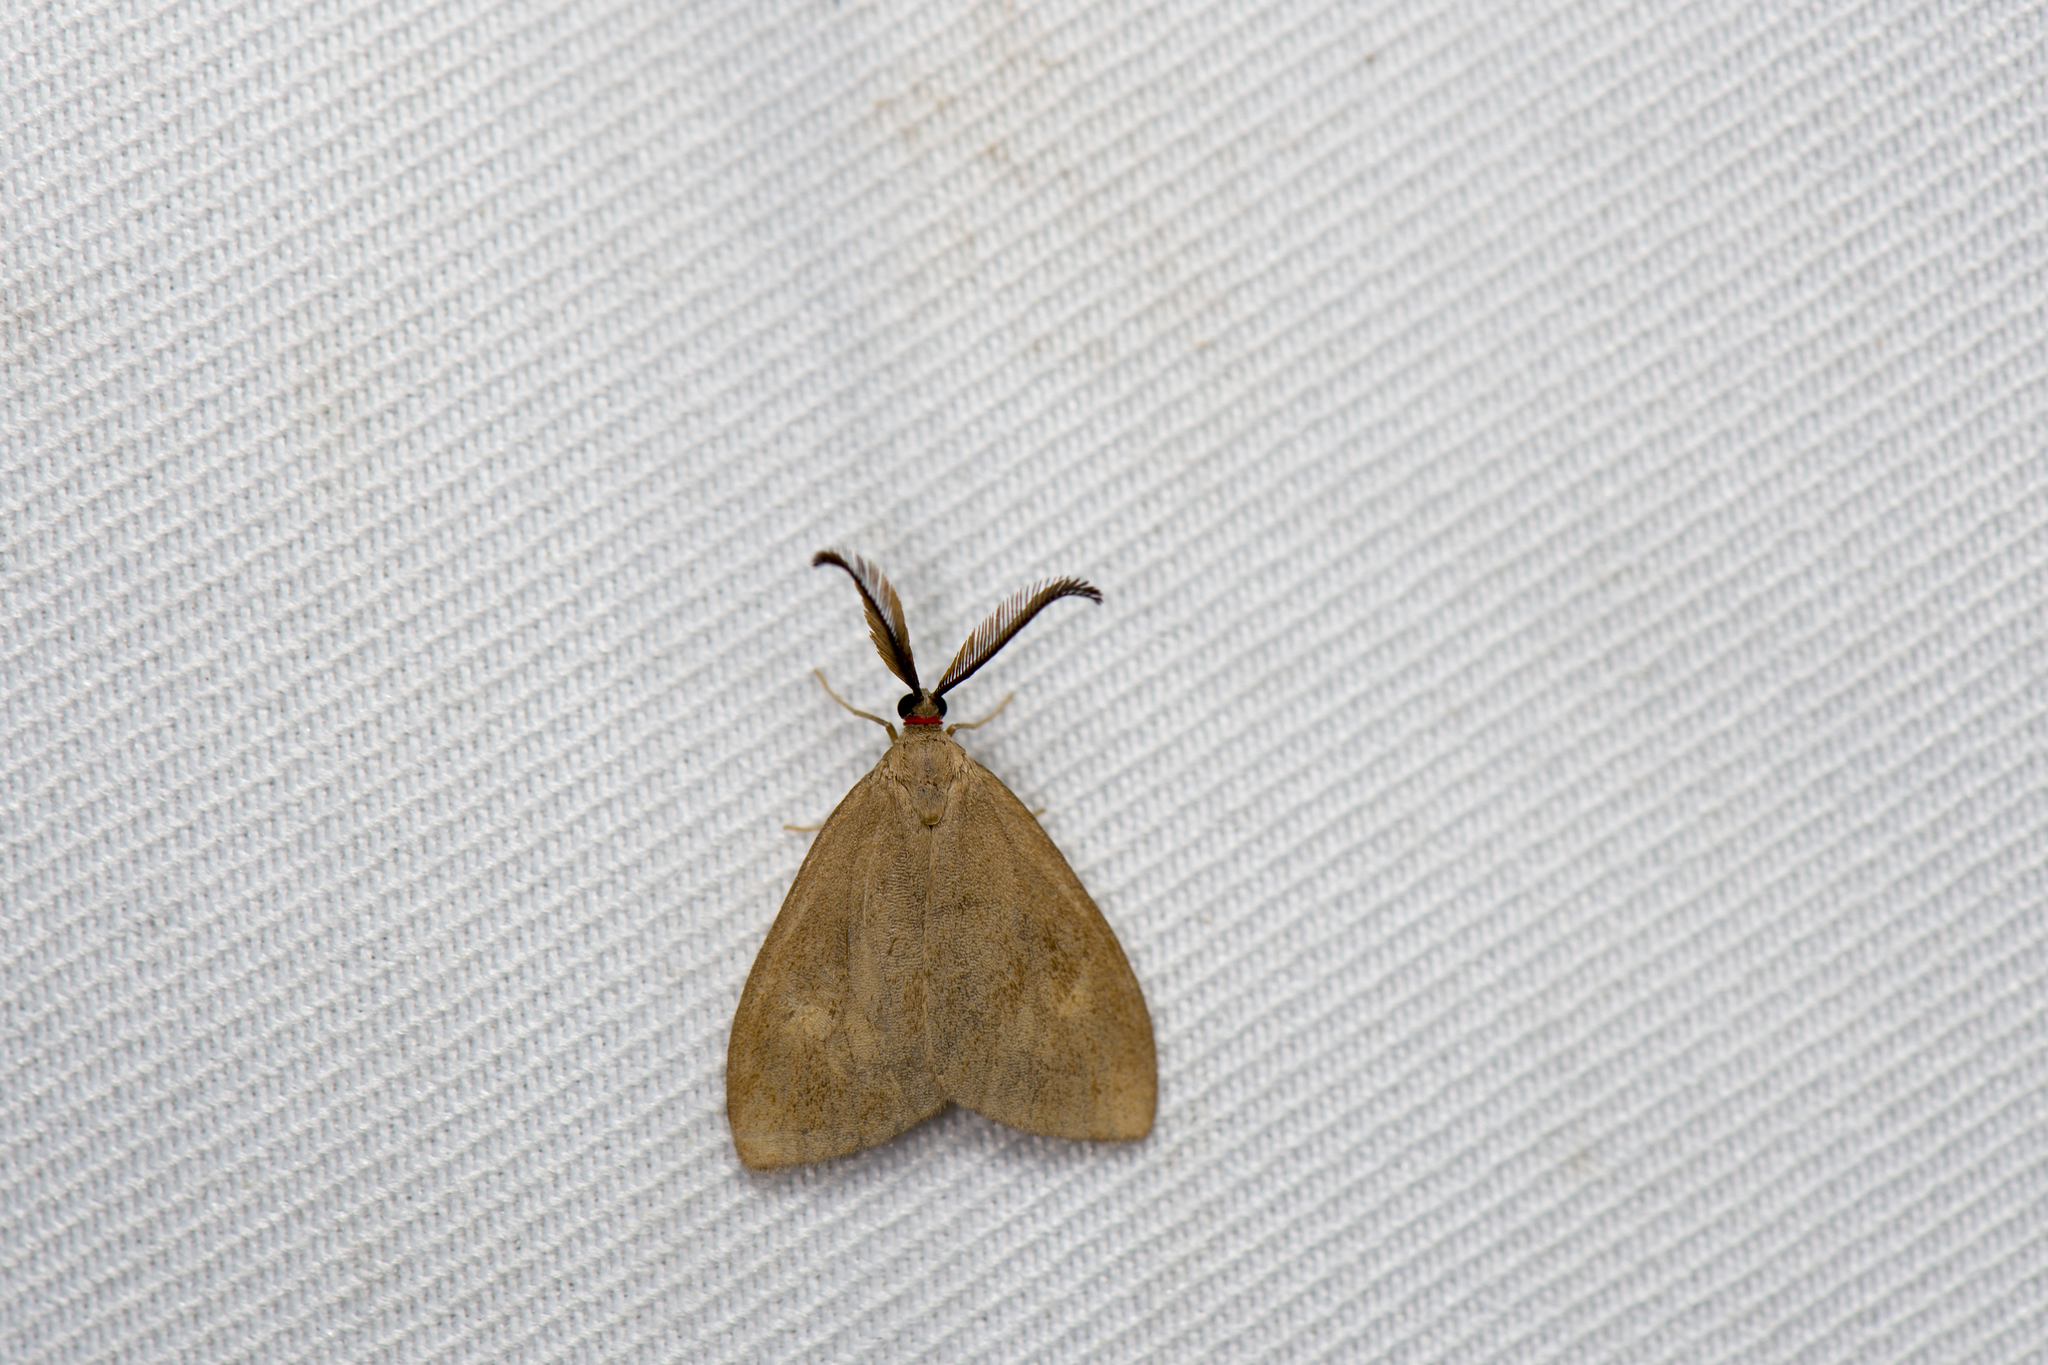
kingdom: Animalia
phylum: Arthropoda
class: Insecta
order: Lepidoptera
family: Zygaenidae
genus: Heteropan
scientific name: Heteropan submacula
